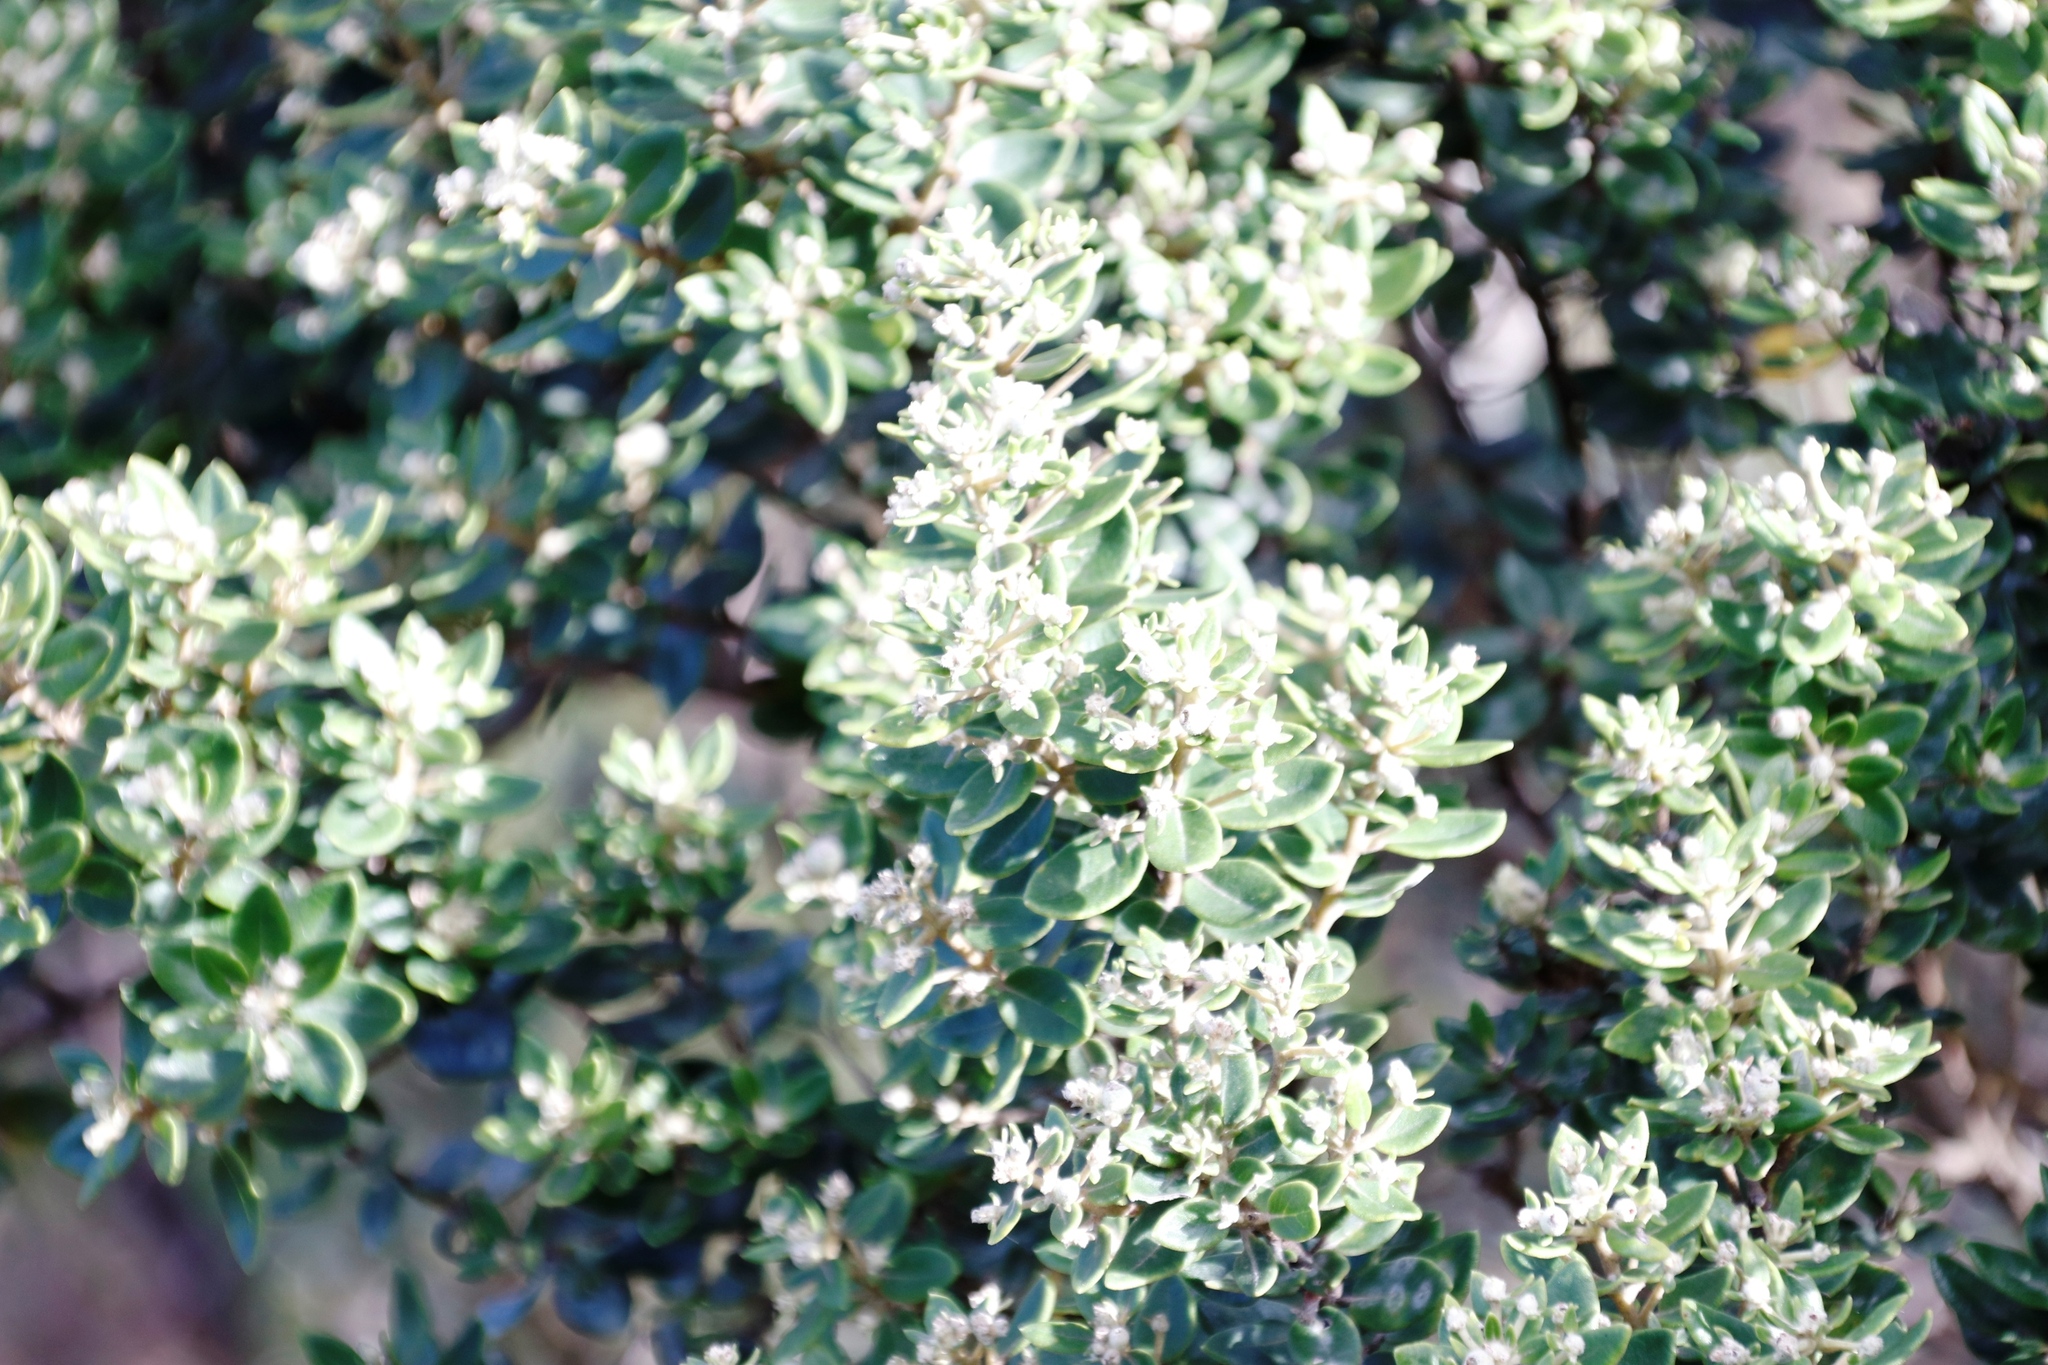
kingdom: Plantae
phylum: Tracheophyta
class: Magnoliopsida
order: Rosales
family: Rhamnaceae
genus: Phylica
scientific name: Phylica buxifolia
